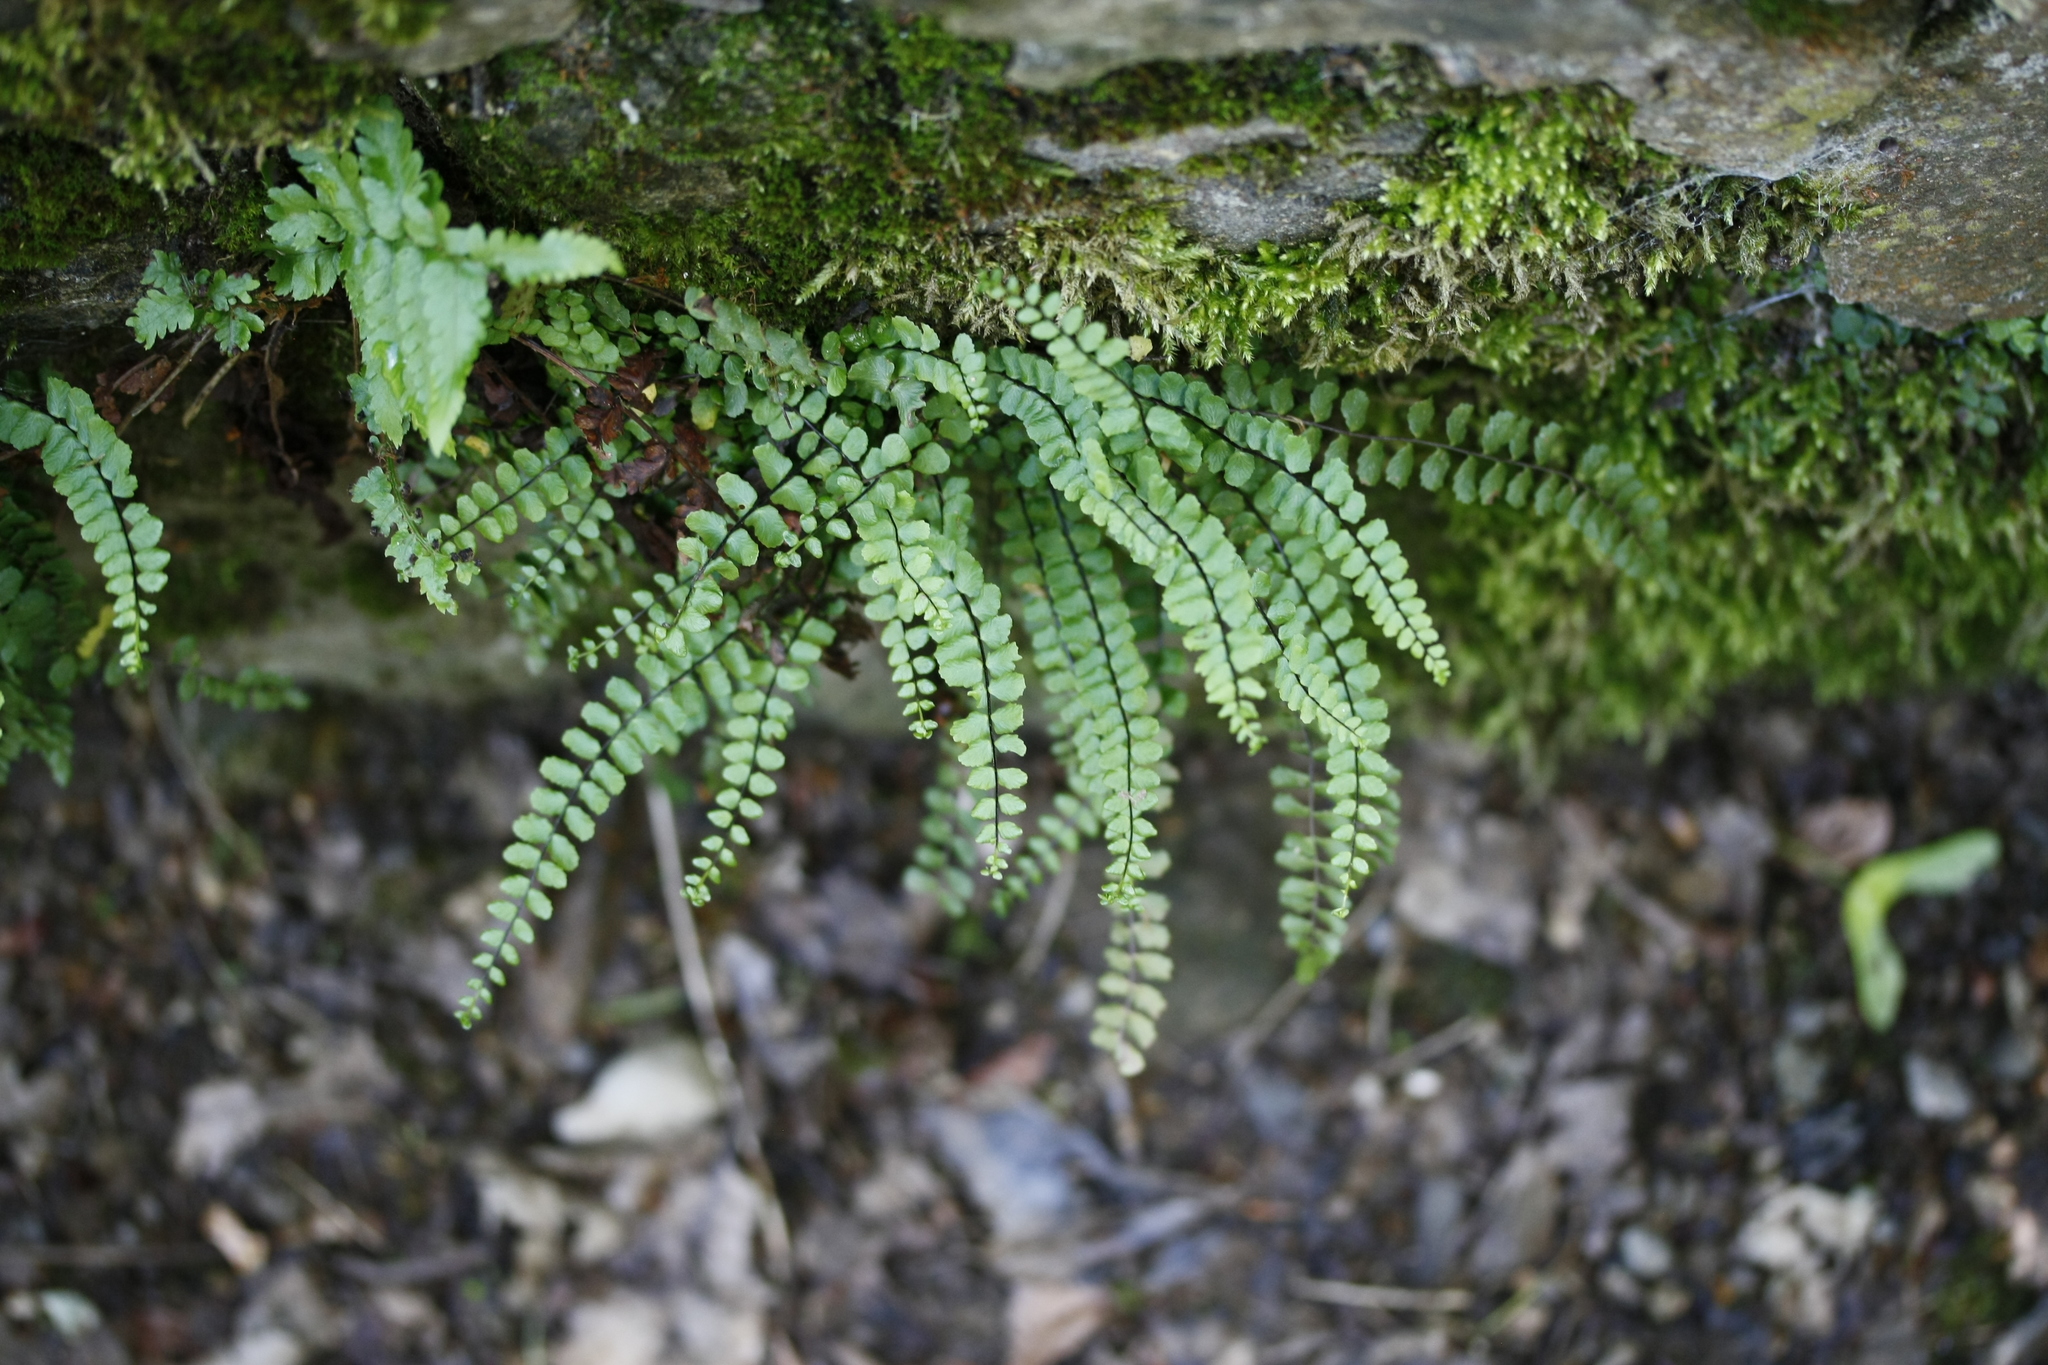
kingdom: Plantae
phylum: Tracheophyta
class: Polypodiopsida
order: Polypodiales
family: Aspleniaceae
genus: Asplenium
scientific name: Asplenium trichomanes
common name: Maidenhair spleenwort
